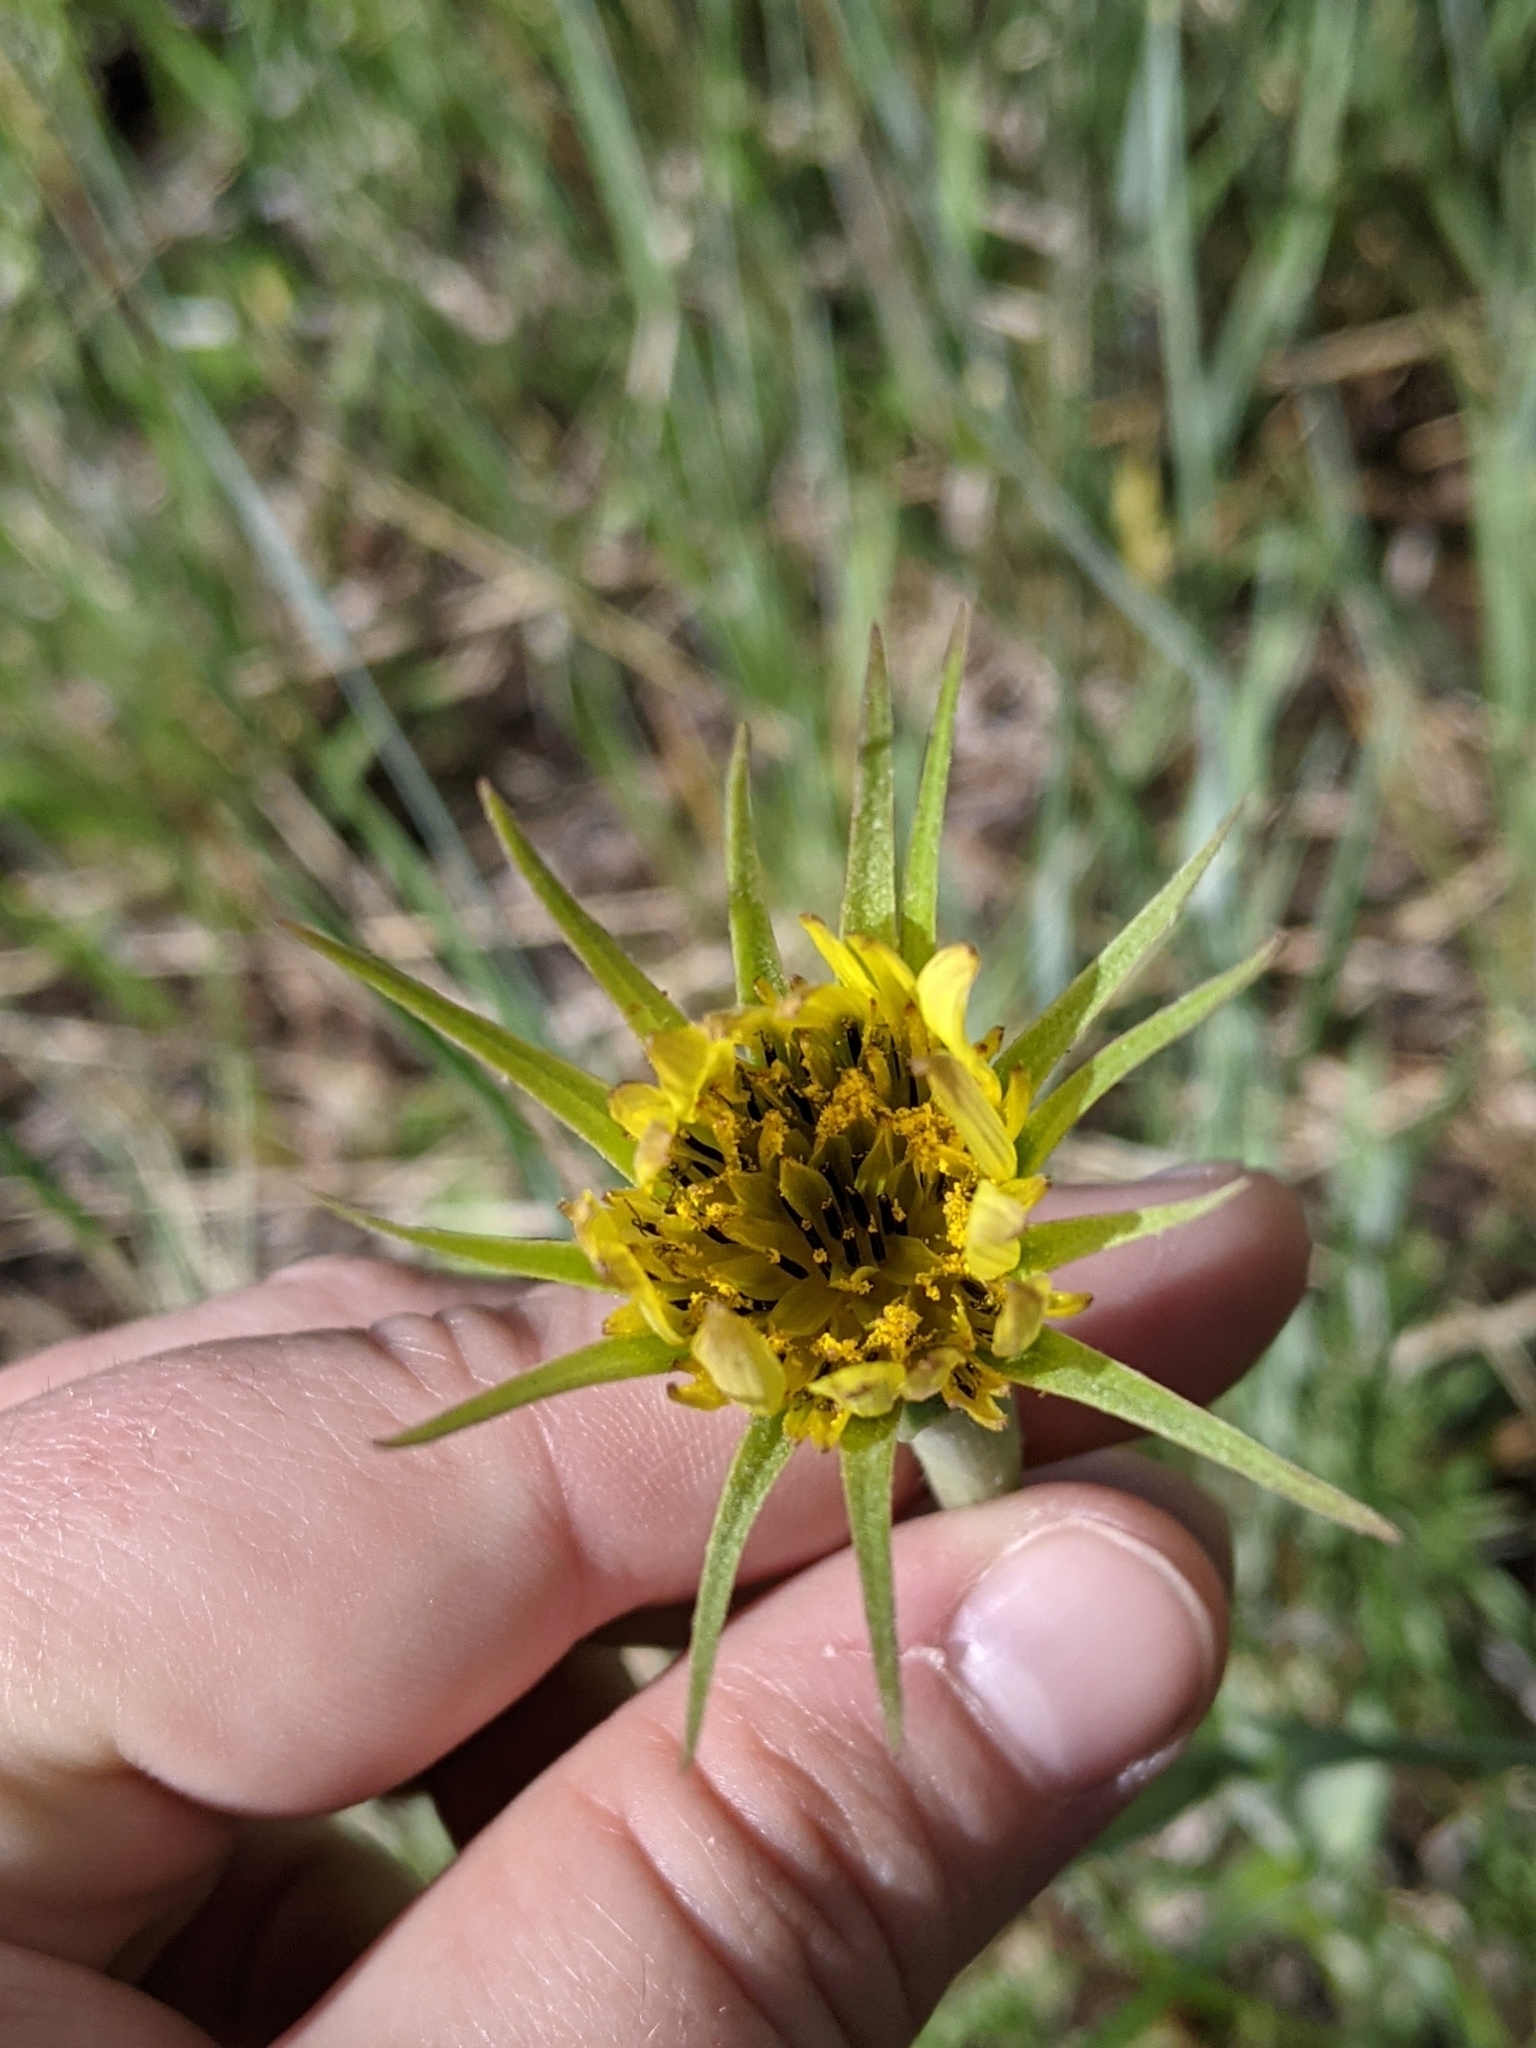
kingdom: Plantae
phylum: Tracheophyta
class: Magnoliopsida
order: Asterales
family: Asteraceae
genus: Tragopogon
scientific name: Tragopogon dubius
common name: Yellow salsify
